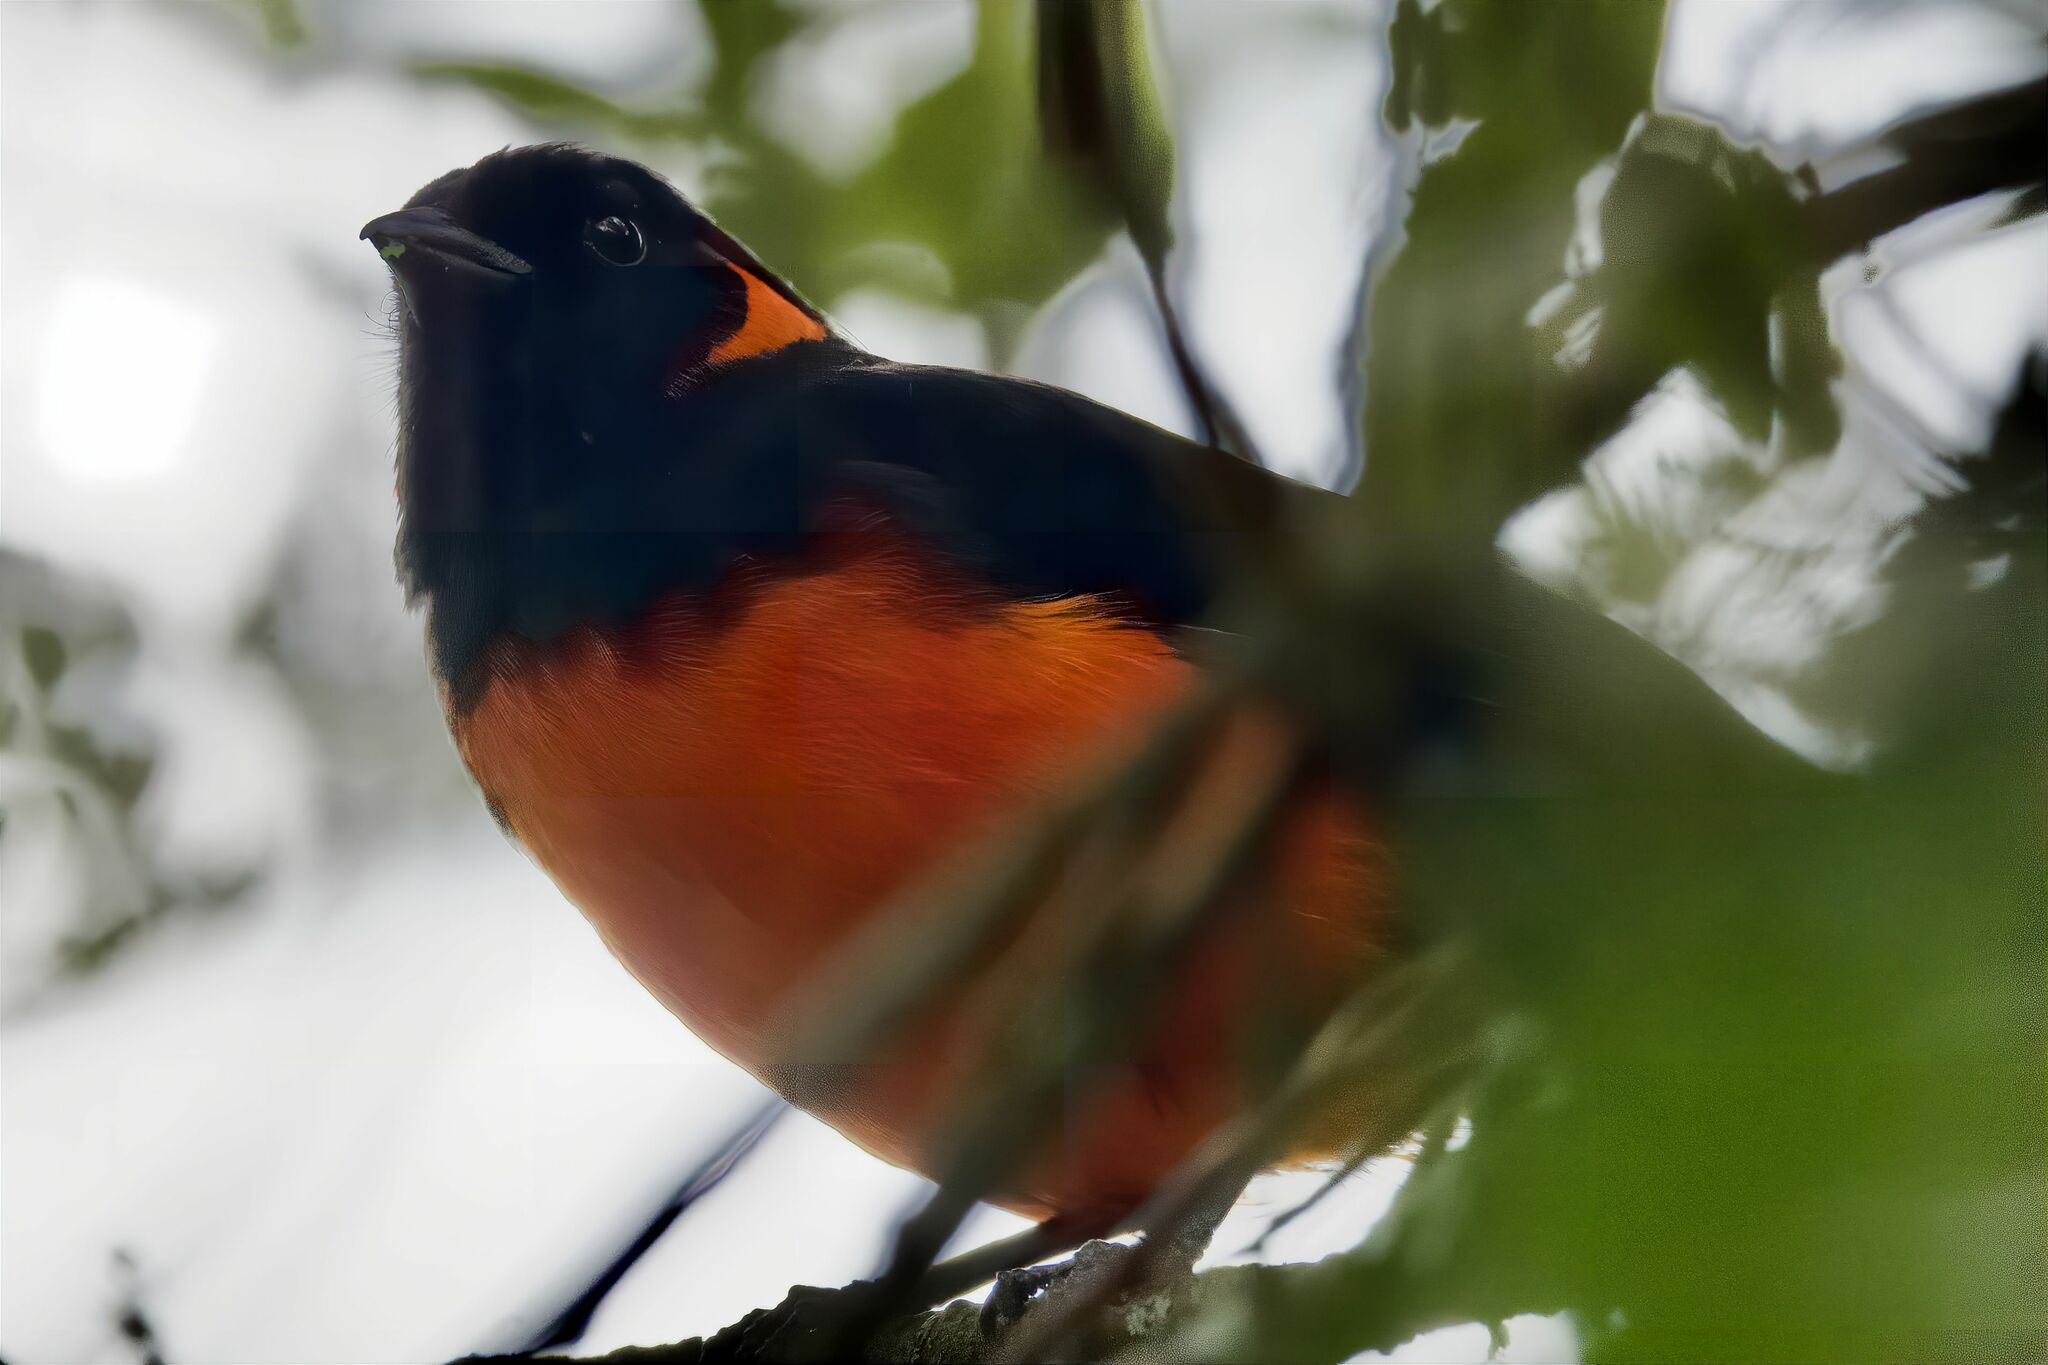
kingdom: Animalia
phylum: Chordata
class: Aves
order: Passeriformes
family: Thraupidae
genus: Anisognathus
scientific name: Anisognathus igniventris
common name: Scarlet-bellied mountain tanager
